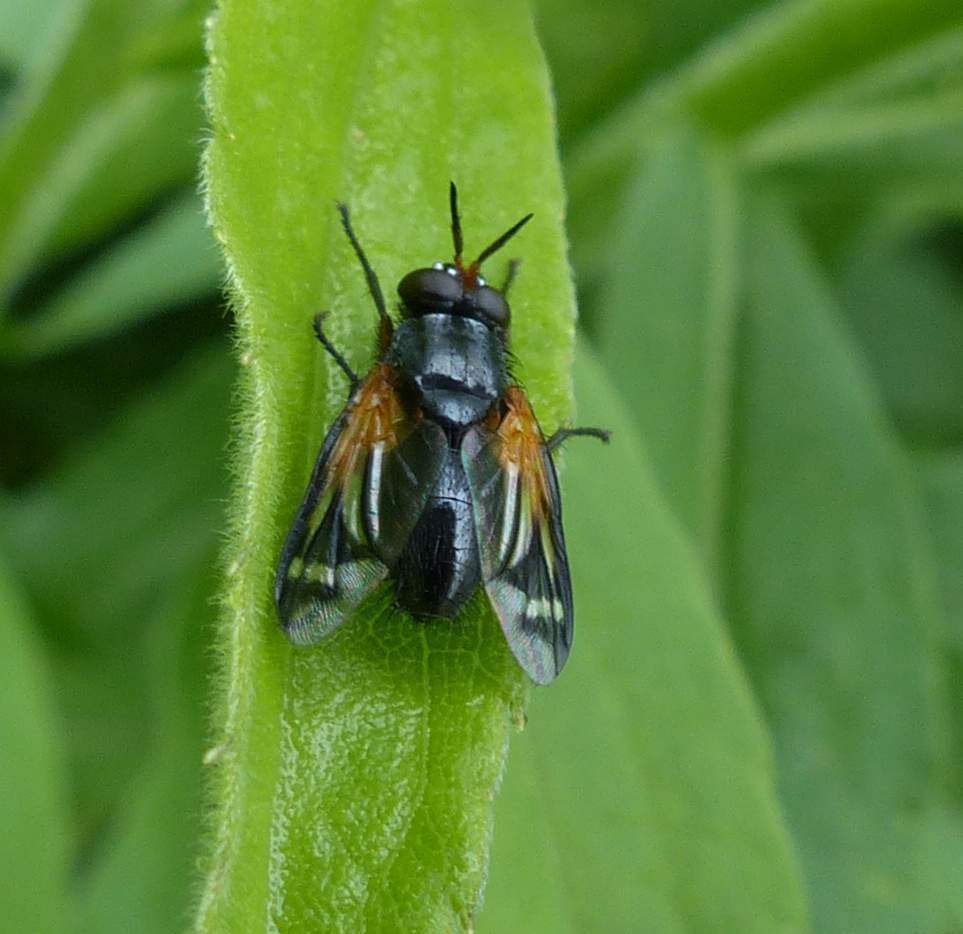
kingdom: Animalia
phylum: Arthropoda
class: Insecta
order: Diptera
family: Tachinidae
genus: Euthera
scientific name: Euthera tentatrix
